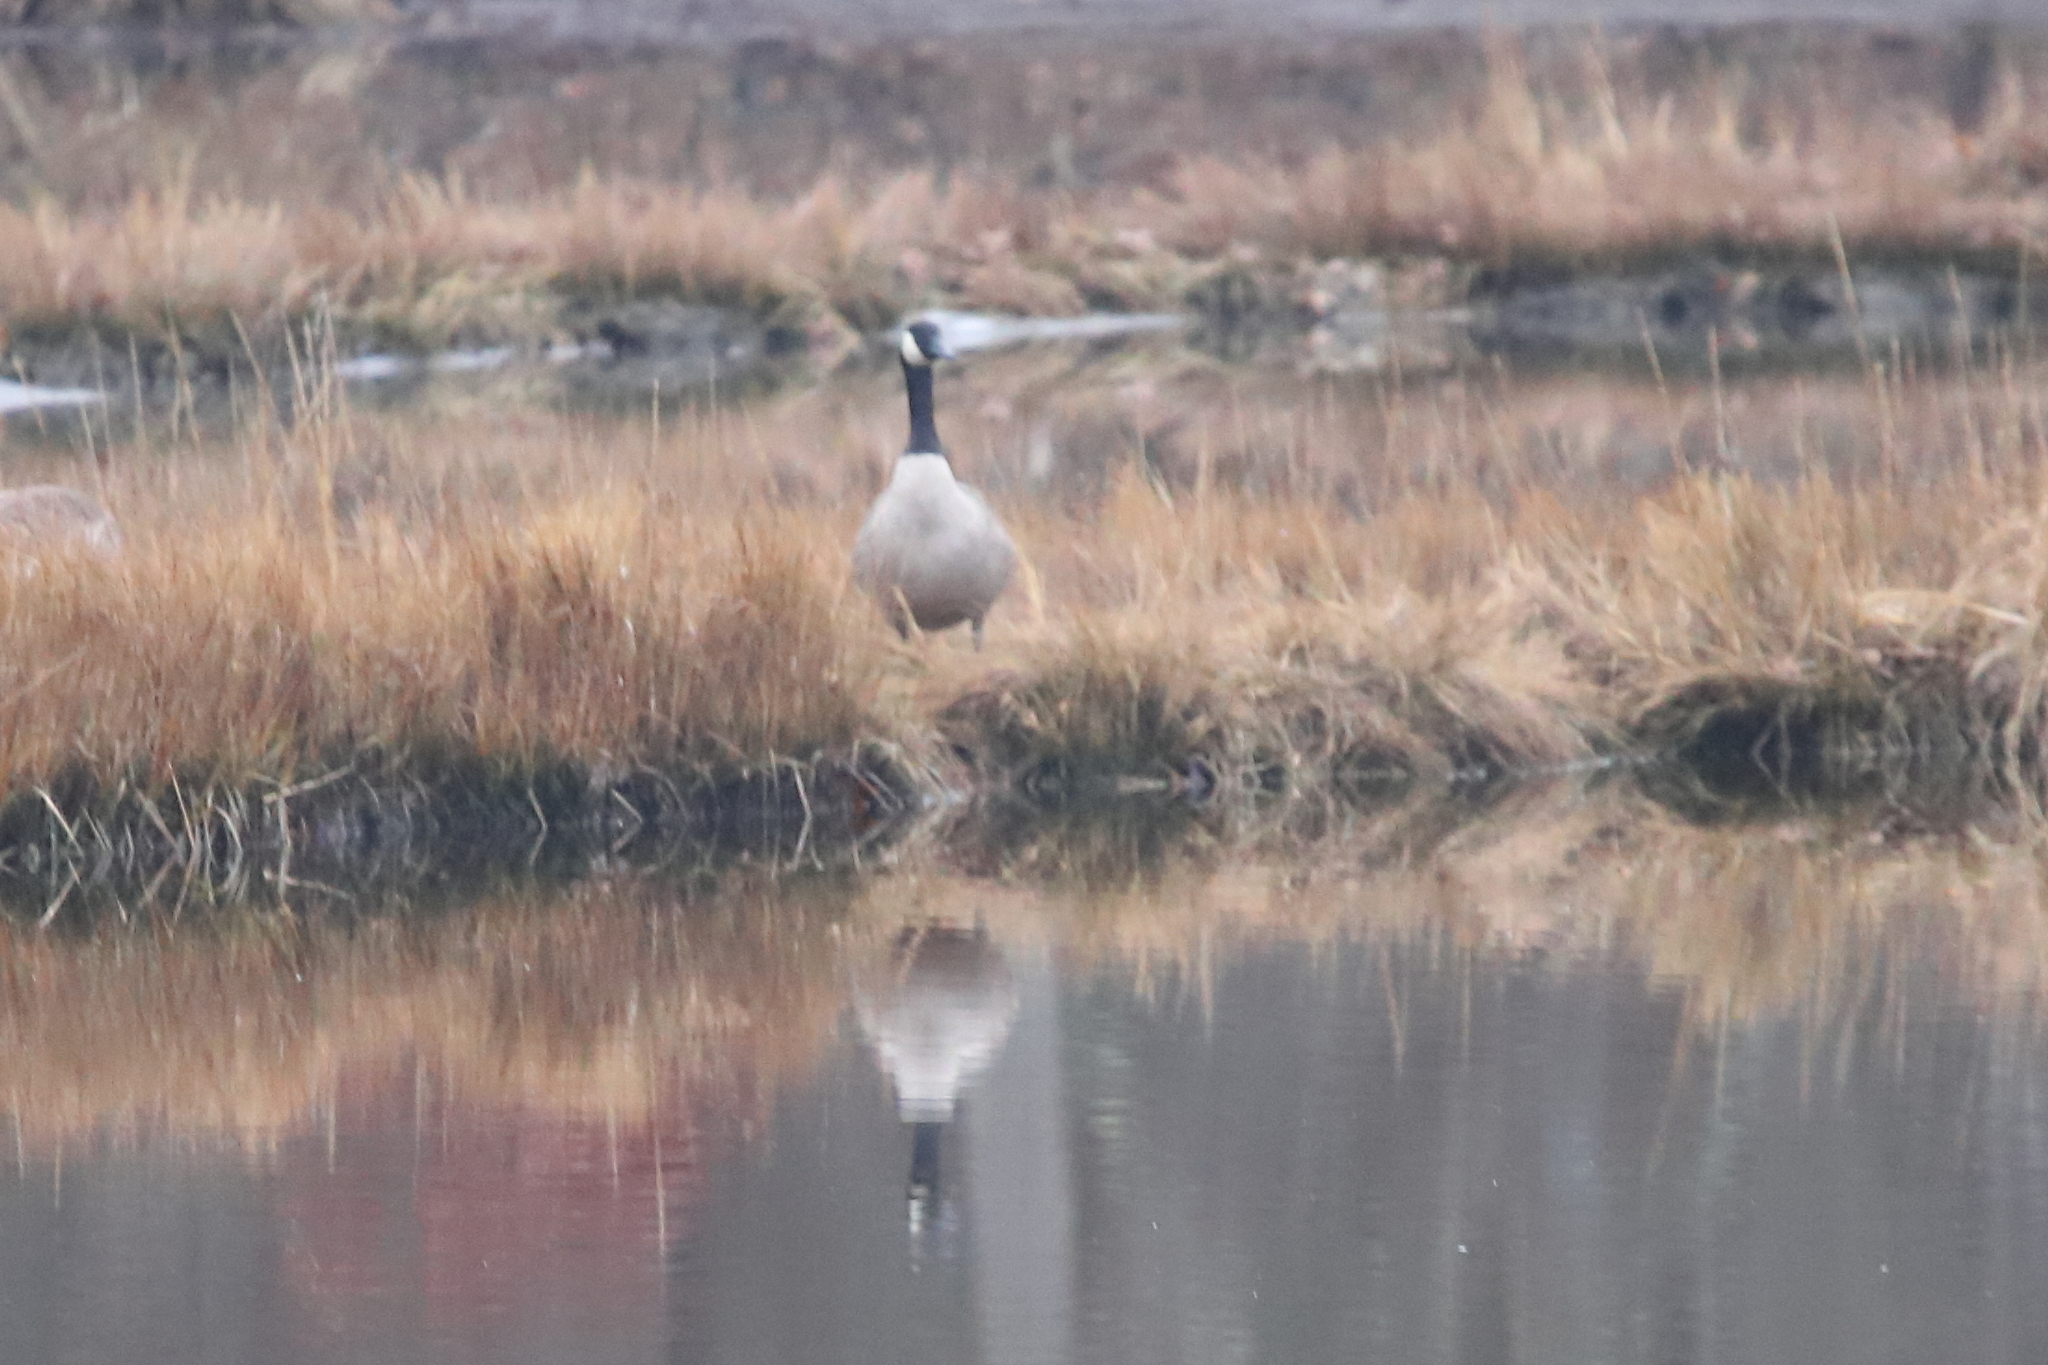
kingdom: Animalia
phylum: Chordata
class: Aves
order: Anseriformes
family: Anatidae
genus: Branta
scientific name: Branta canadensis
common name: Canada goose
